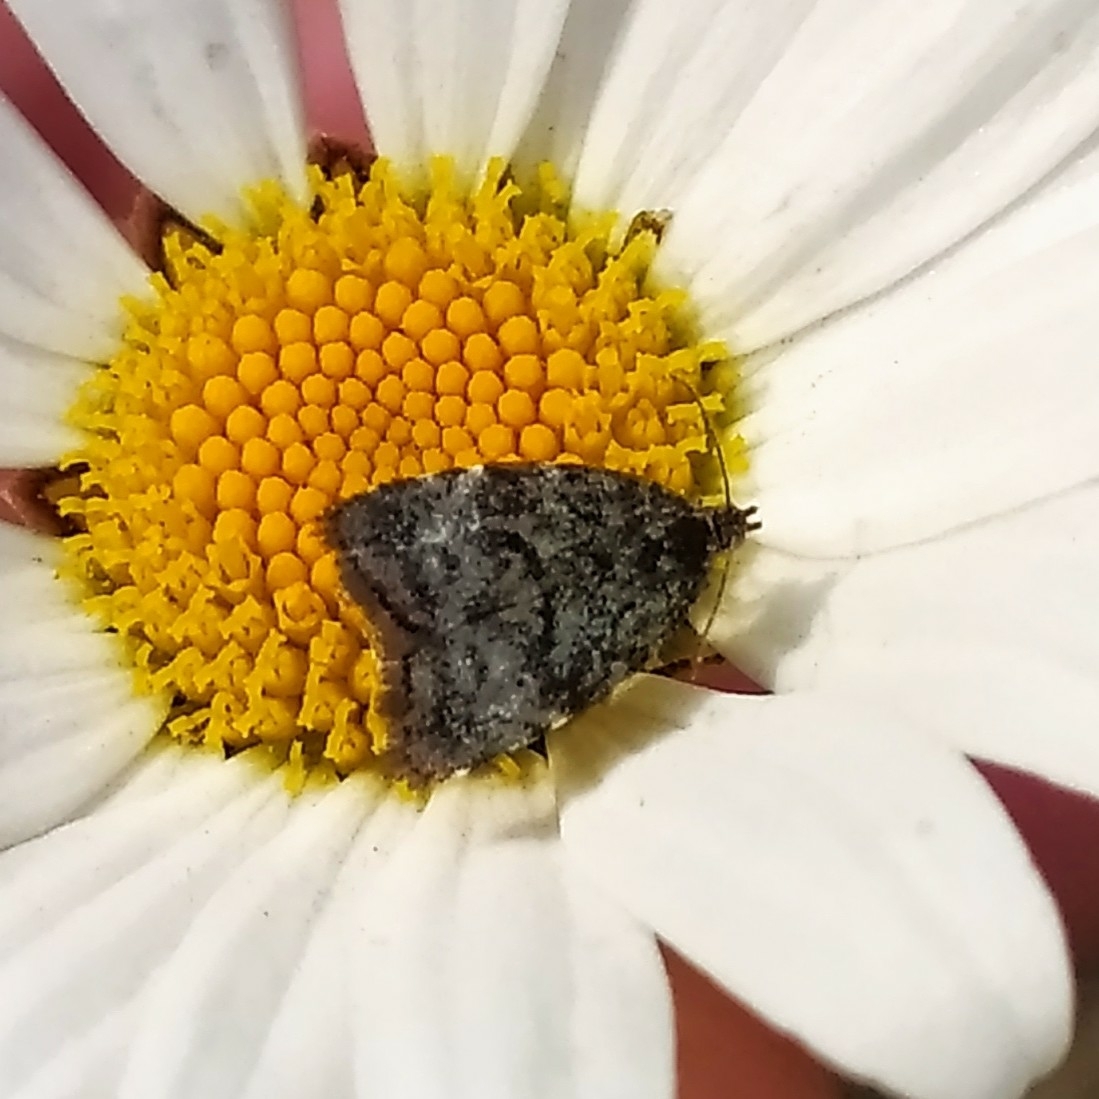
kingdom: Animalia
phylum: Arthropoda
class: Insecta
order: Lepidoptera
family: Choreutidae
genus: Choreutis
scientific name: Choreutis diana
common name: Inverness twitcher
